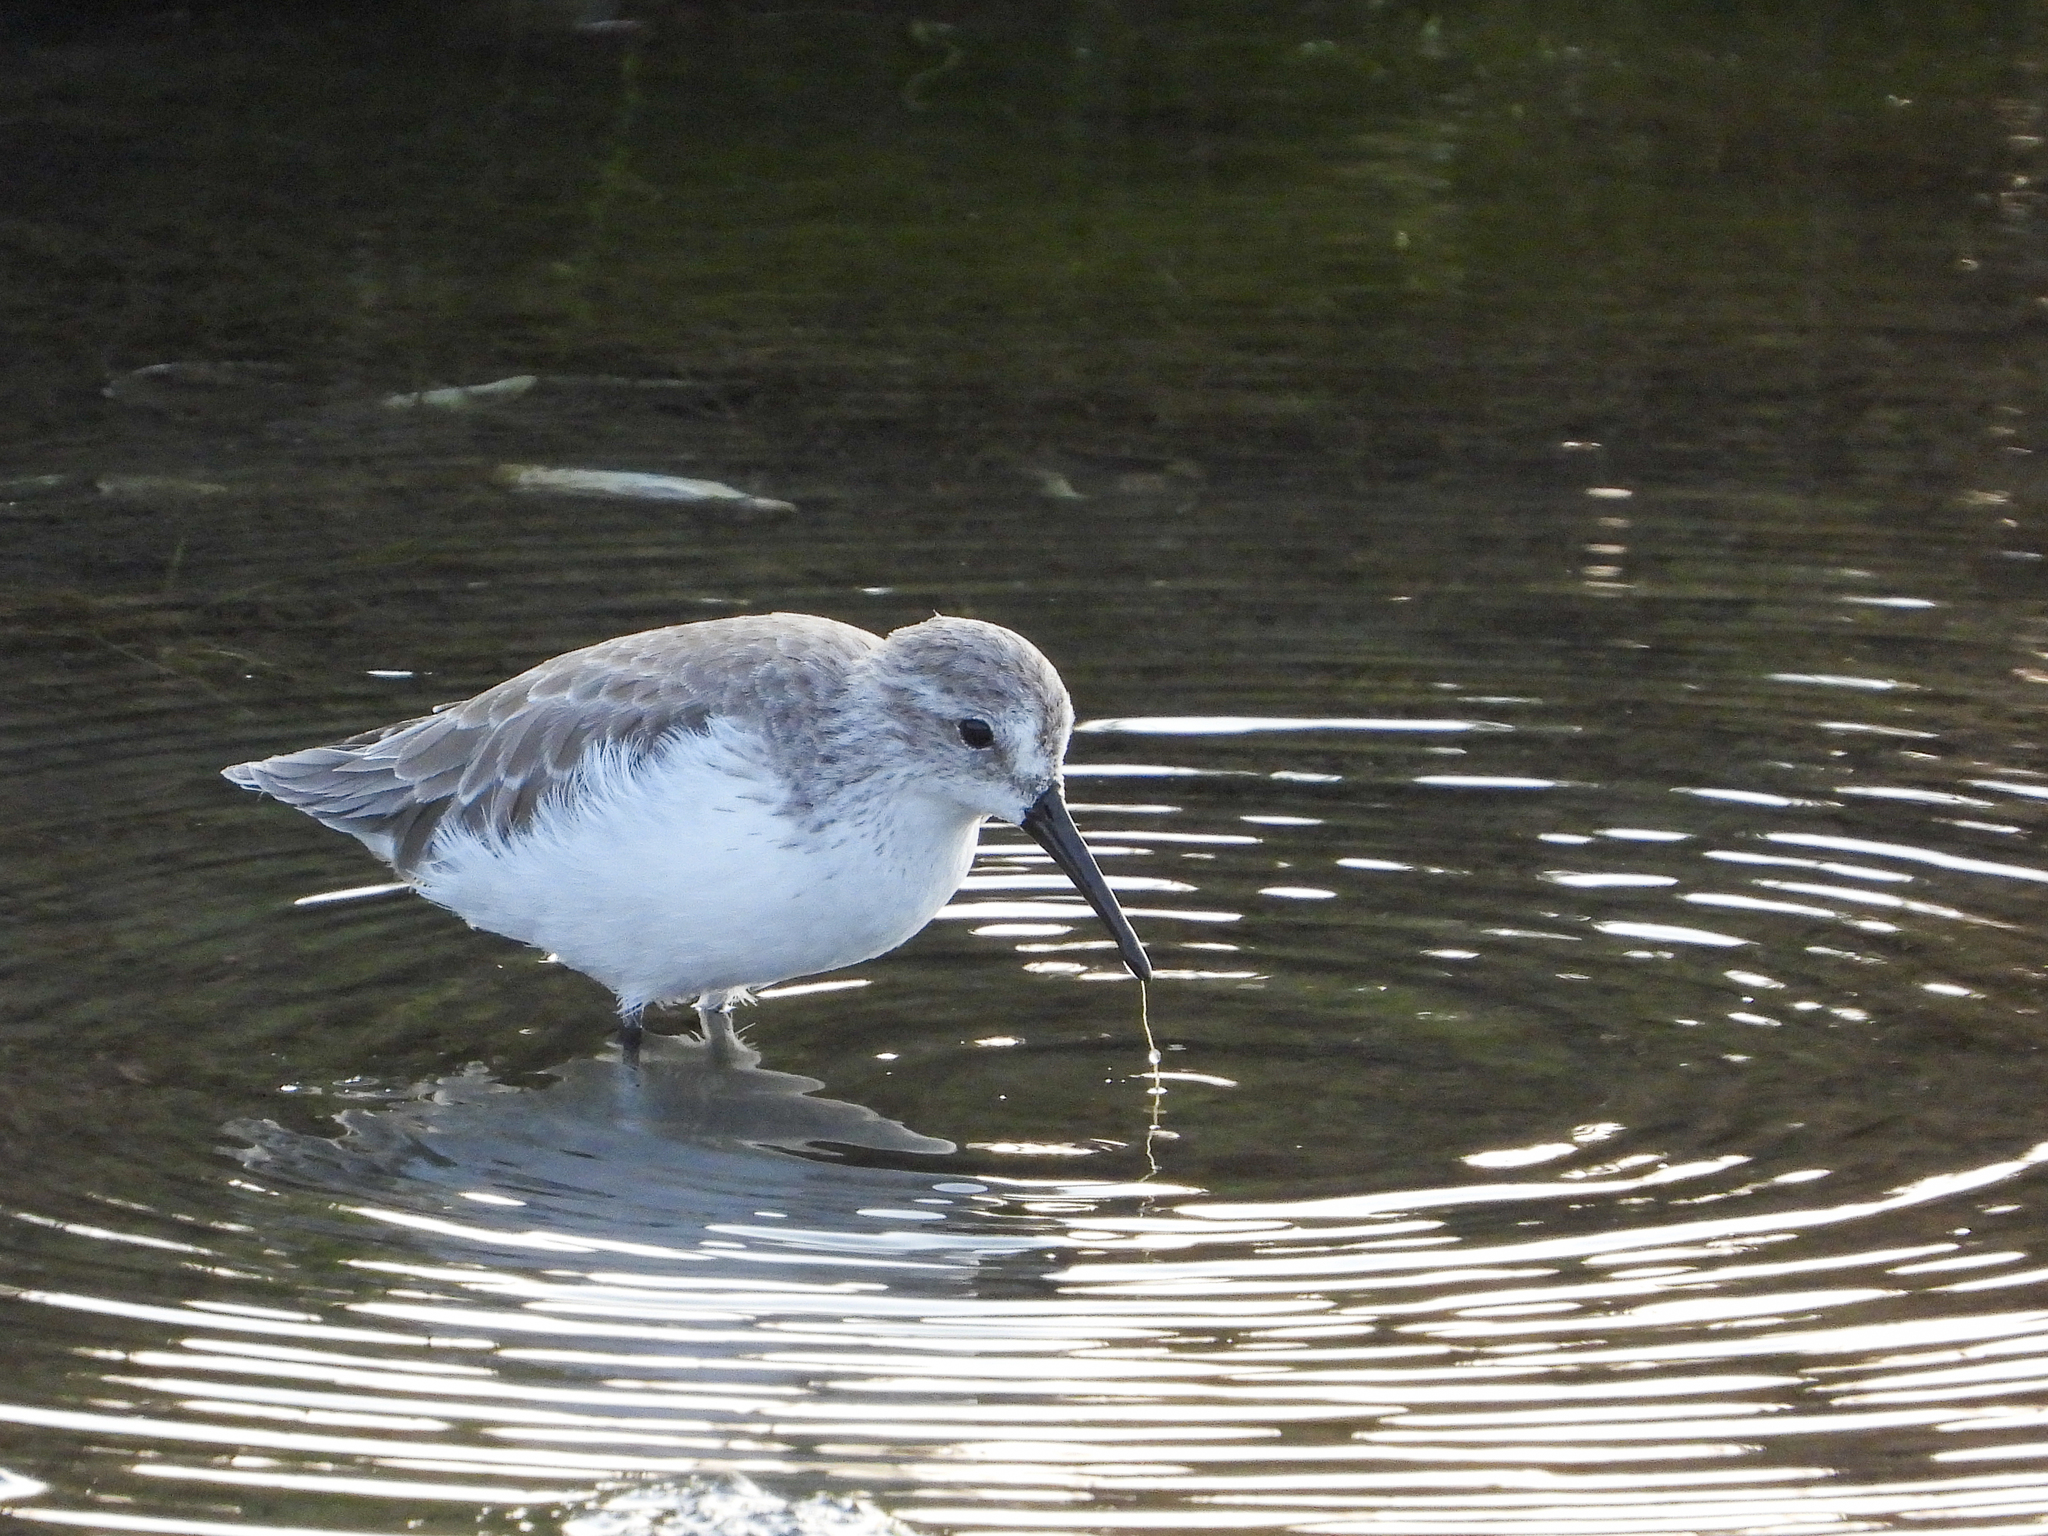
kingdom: Animalia
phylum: Chordata
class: Aves
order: Charadriiformes
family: Scolopacidae
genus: Calidris
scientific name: Calidris mauri
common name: Western sandpiper
